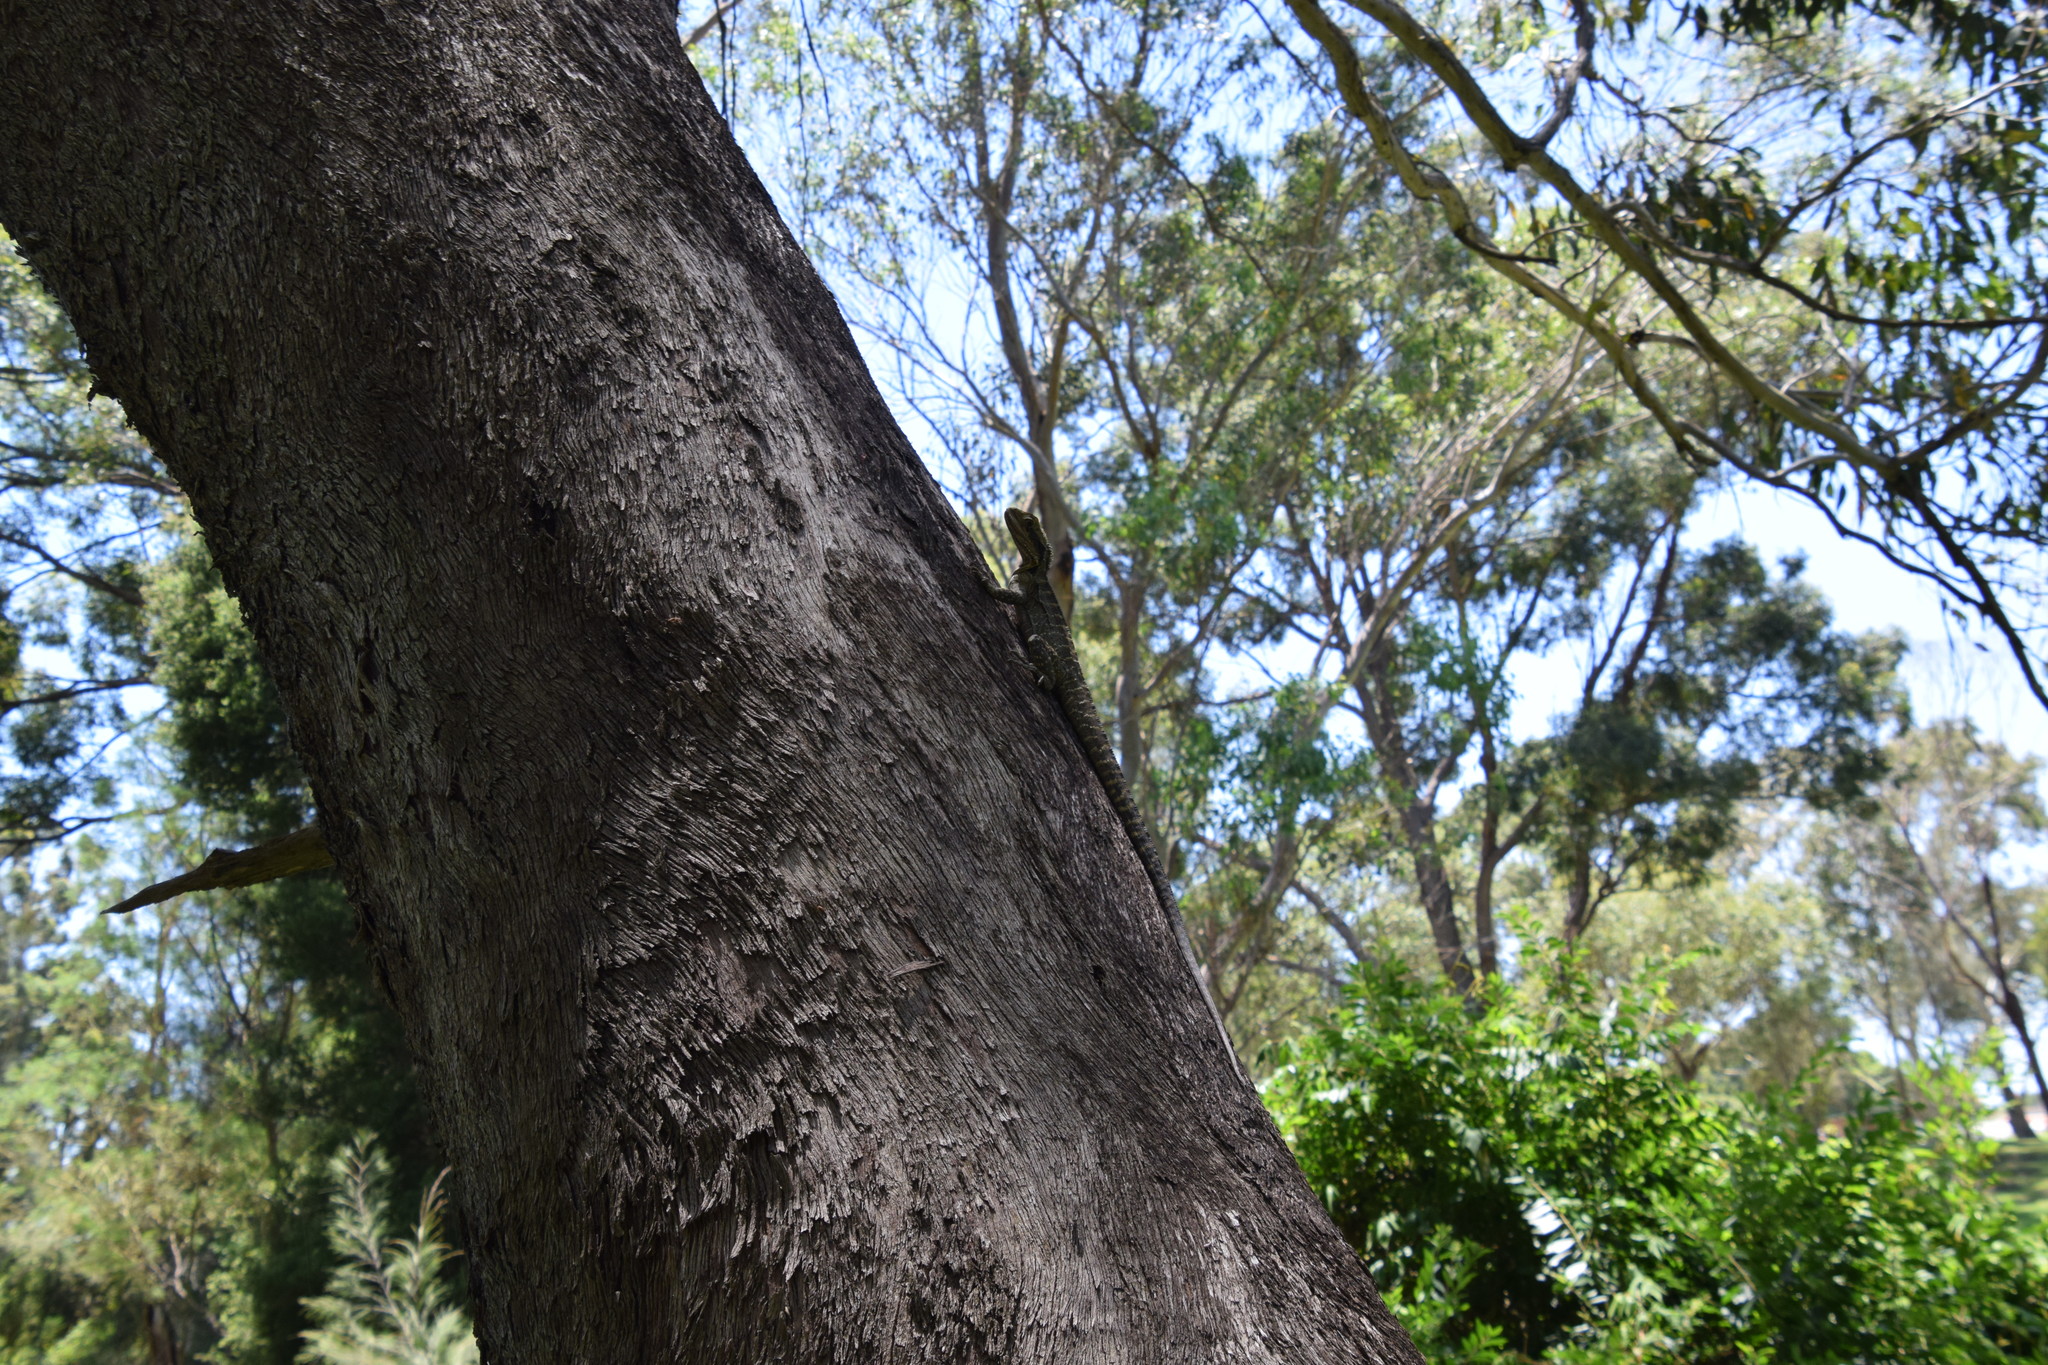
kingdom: Animalia
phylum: Chordata
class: Squamata
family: Agamidae
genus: Intellagama
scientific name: Intellagama lesueurii
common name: Eastern water dragon
